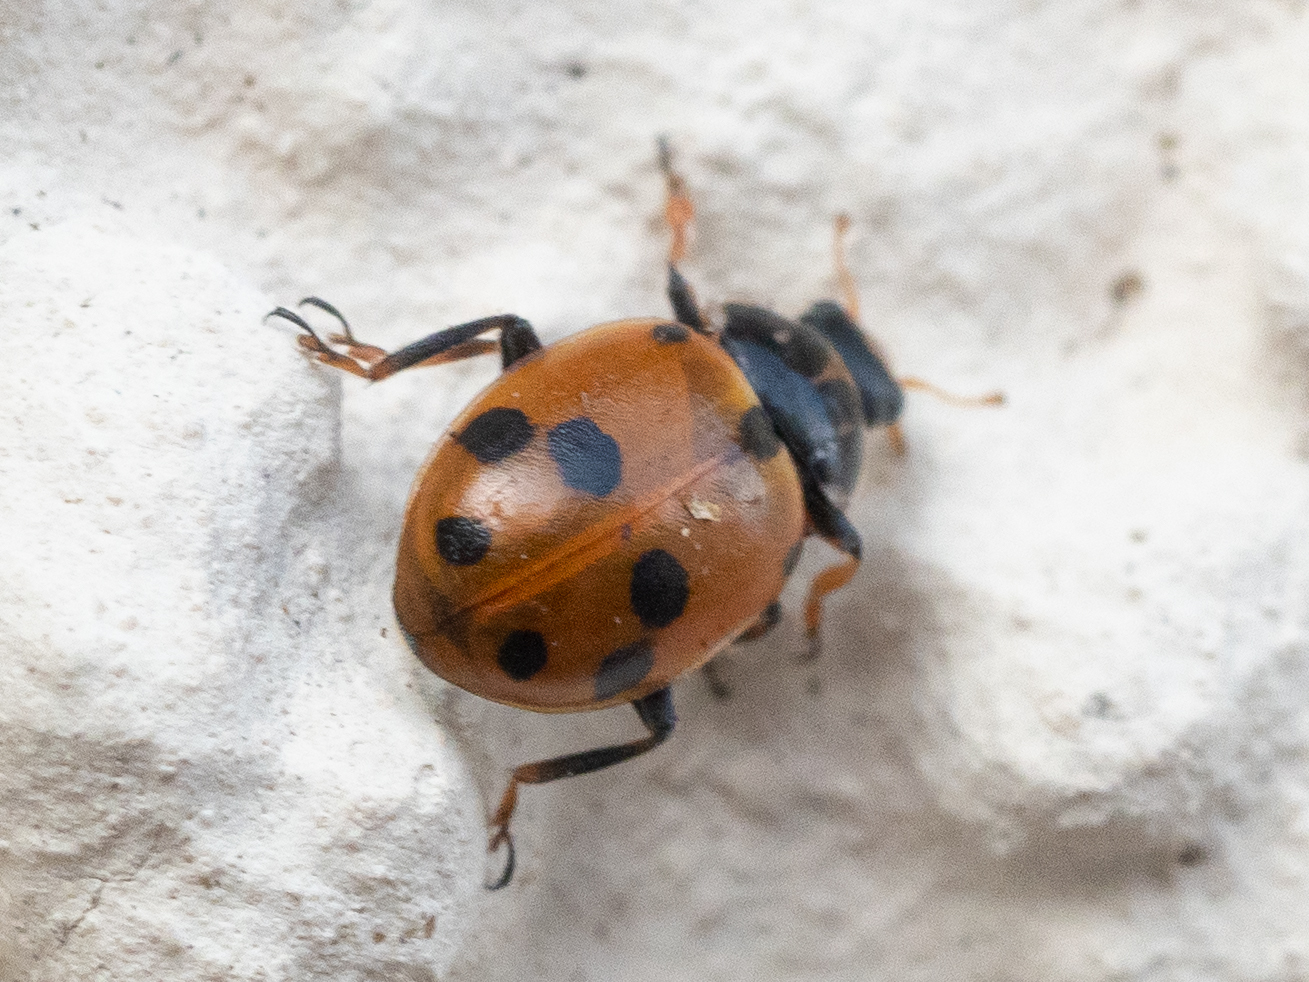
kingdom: Animalia
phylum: Arthropoda
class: Insecta
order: Coleoptera
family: Coccinellidae
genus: Hippodamia
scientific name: Hippodamia variegata
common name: Ladybird beetle
